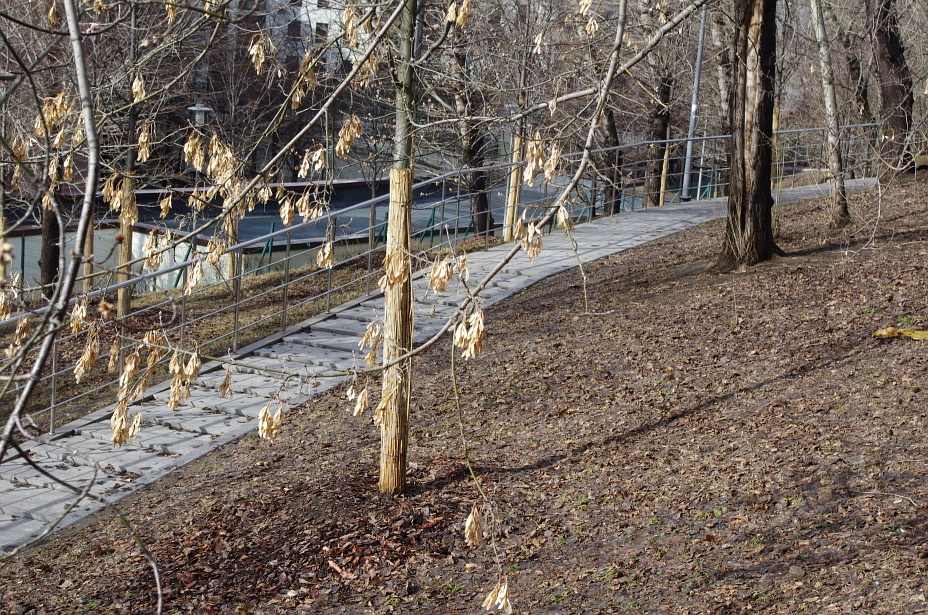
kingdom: Plantae
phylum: Tracheophyta
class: Magnoliopsida
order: Sapindales
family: Sapindaceae
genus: Acer
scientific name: Acer negundo
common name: Ashleaf maple
